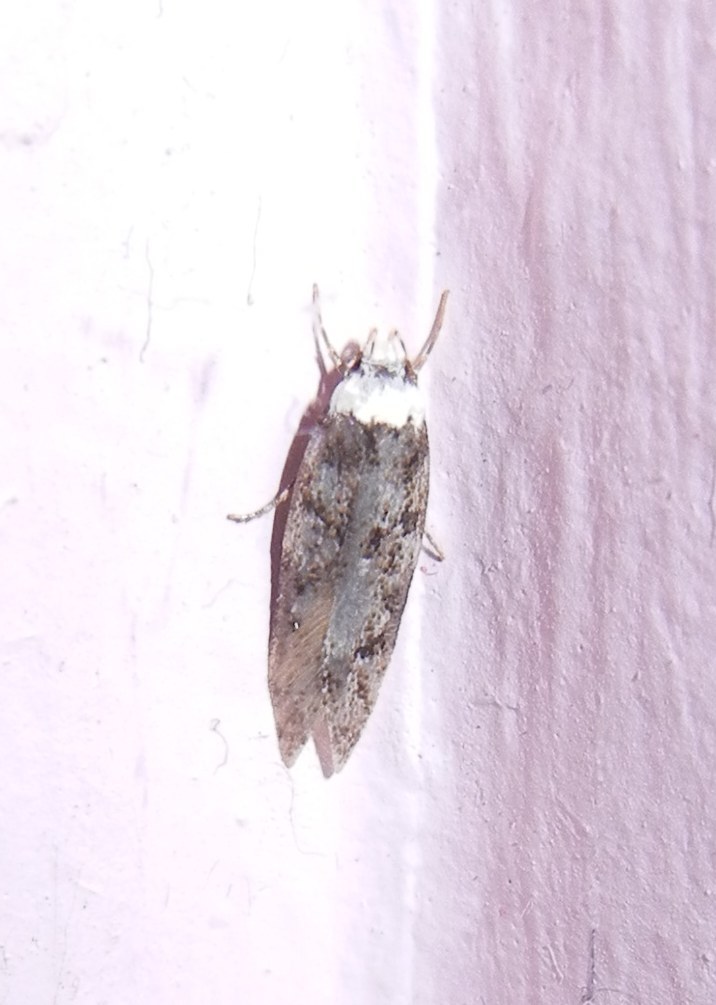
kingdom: Animalia
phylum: Arthropoda
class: Insecta
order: Lepidoptera
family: Oecophoridae
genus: Endrosis
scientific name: Endrosis sarcitrella
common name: White-shouldered house moth
